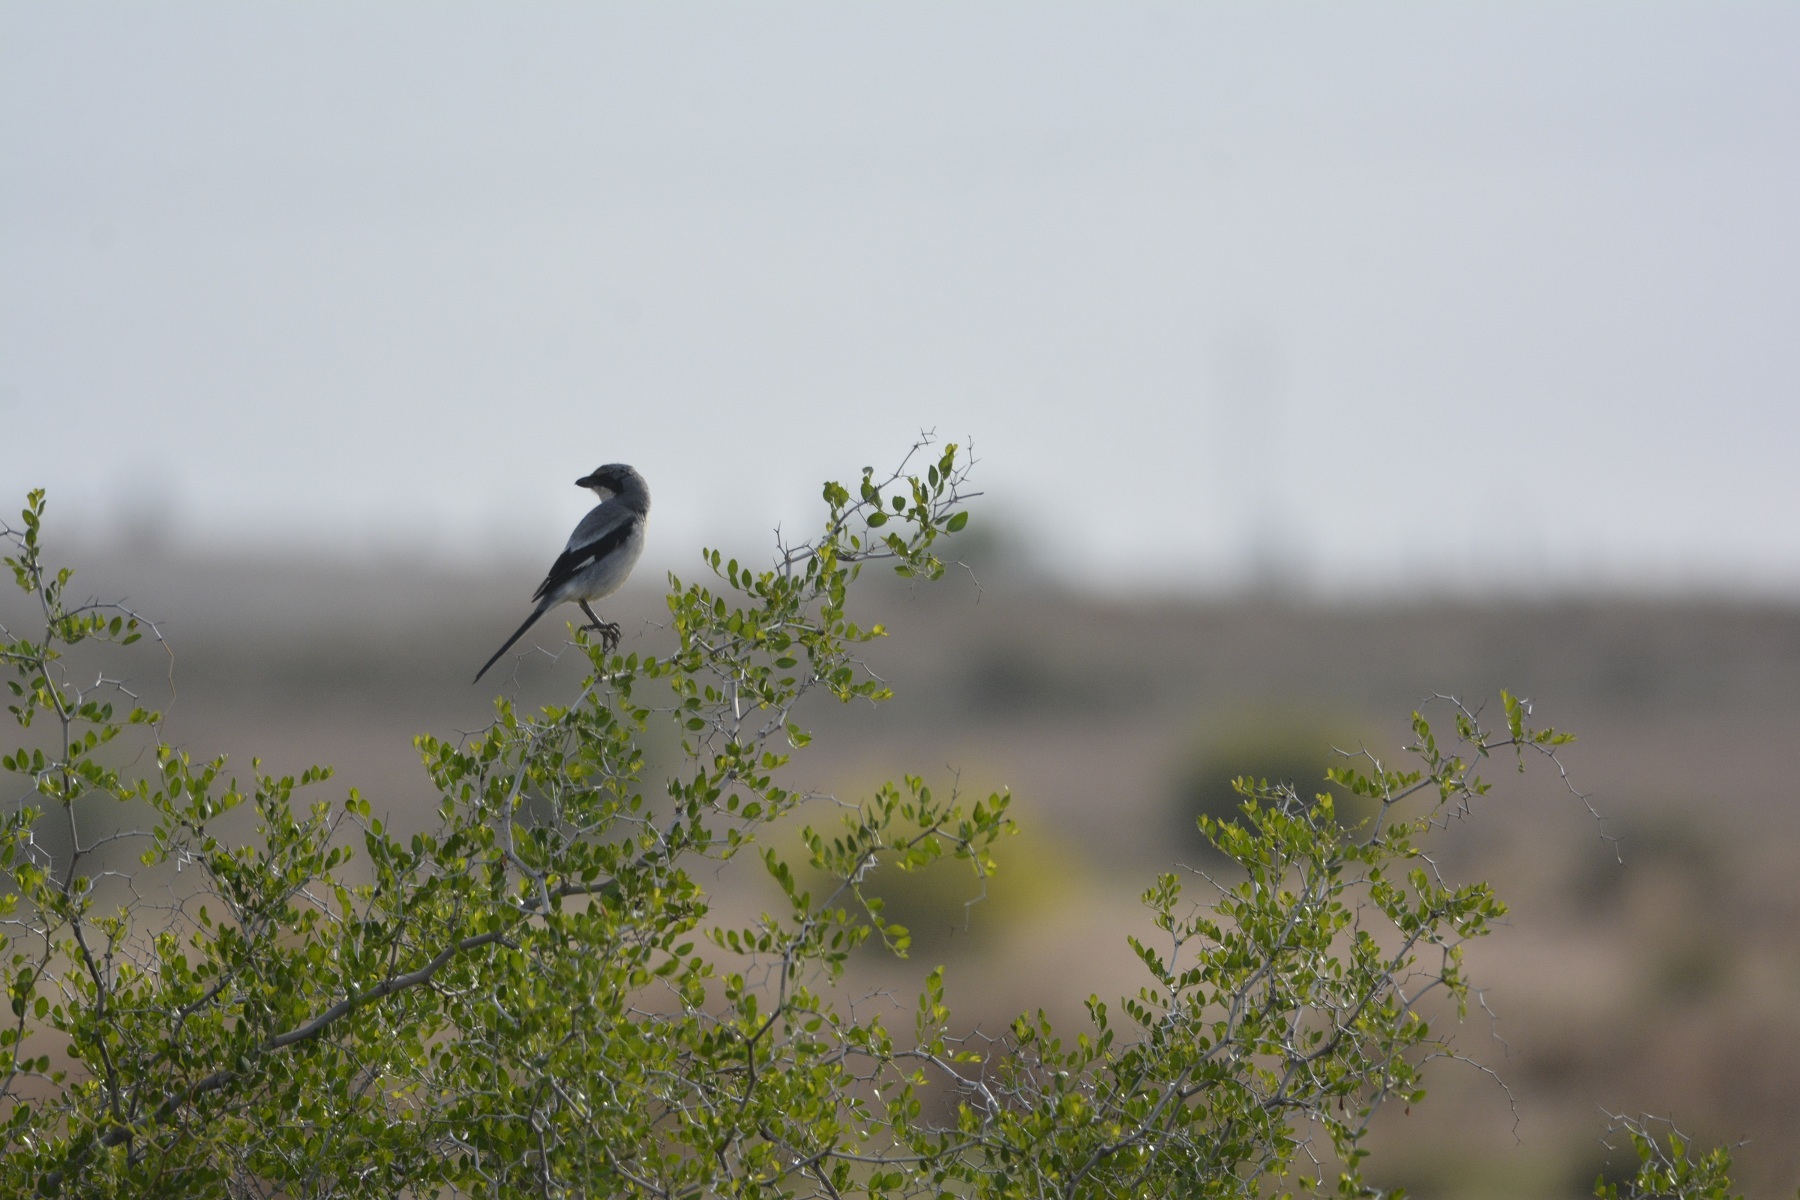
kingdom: Animalia
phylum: Chordata
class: Aves
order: Passeriformes
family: Laniidae
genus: Lanius
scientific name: Lanius excubitor
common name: Great grey shrike
